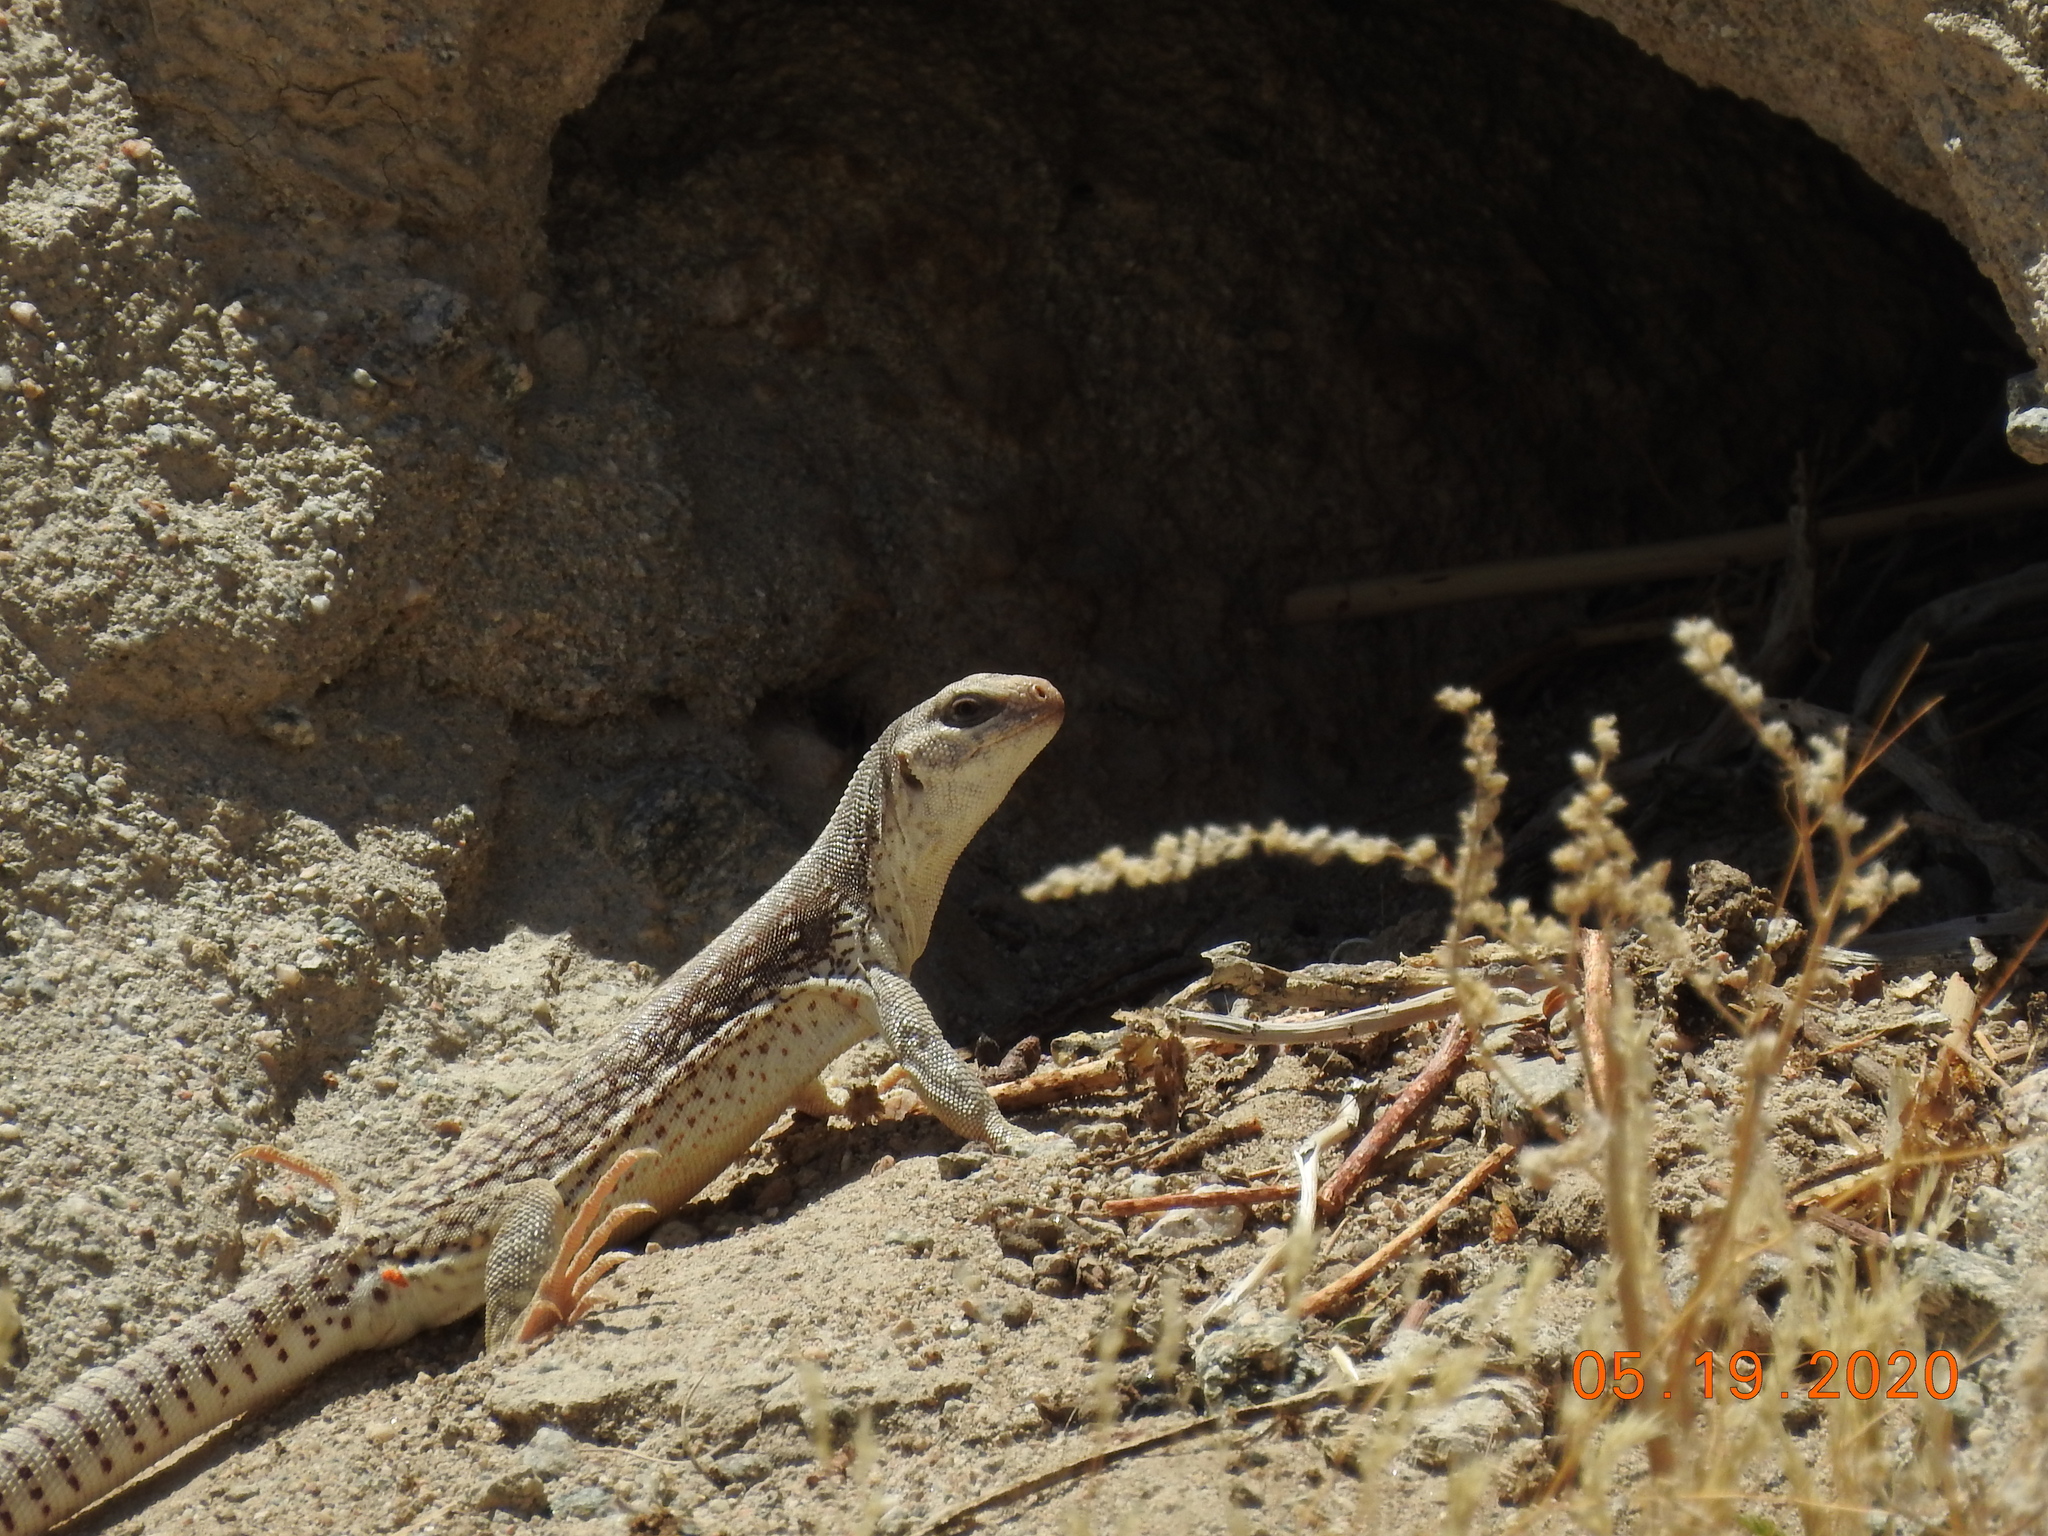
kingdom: Animalia
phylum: Chordata
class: Squamata
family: Iguanidae
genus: Dipsosaurus
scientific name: Dipsosaurus dorsalis
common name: Desert iguana
